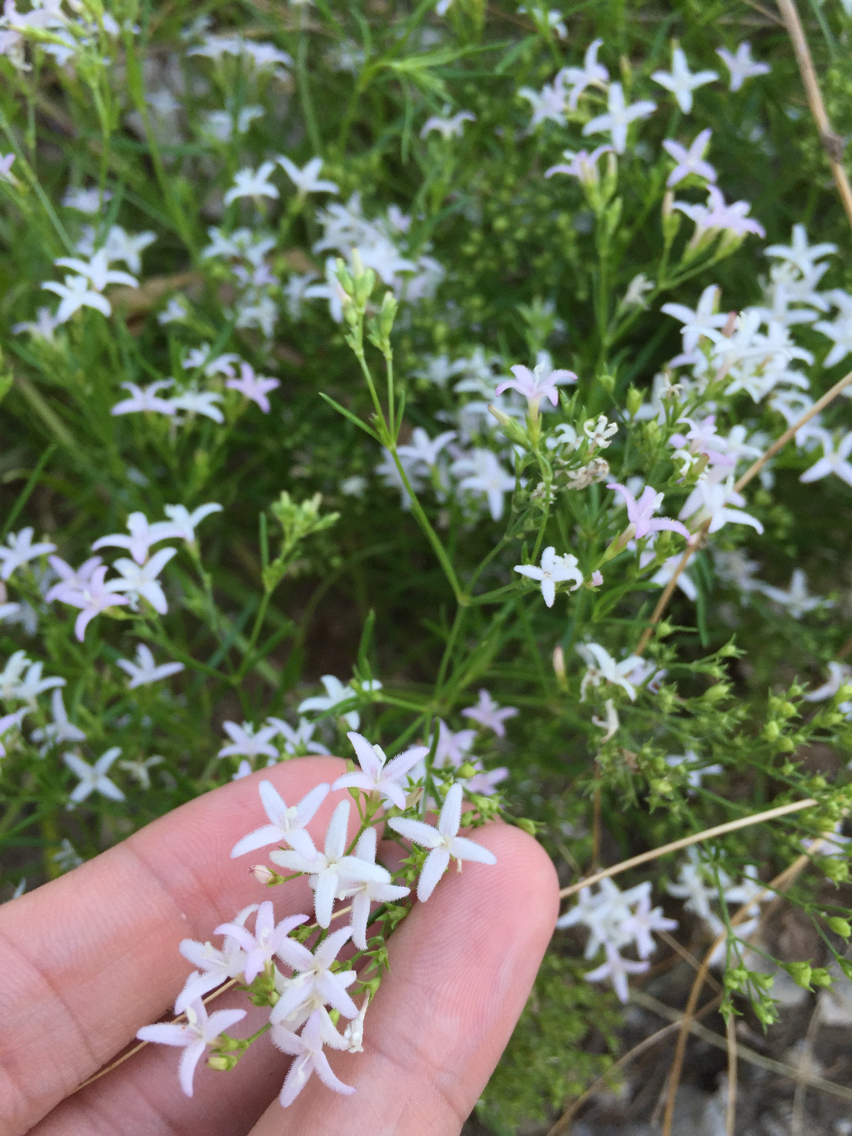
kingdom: Plantae
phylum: Tracheophyta
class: Magnoliopsida
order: Gentianales
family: Rubiaceae
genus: Stenaria
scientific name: Stenaria nigricans
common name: Diamondflowers
